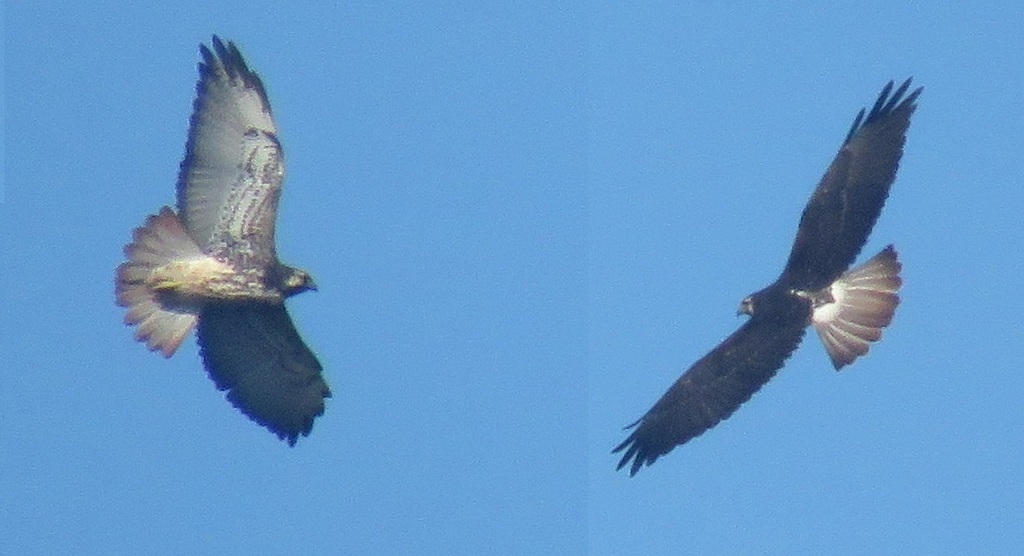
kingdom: Animalia
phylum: Chordata
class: Aves
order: Accipitriformes
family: Accipitridae
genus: Buteo
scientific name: Buteo albicaudatus
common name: White-tailed hawk
